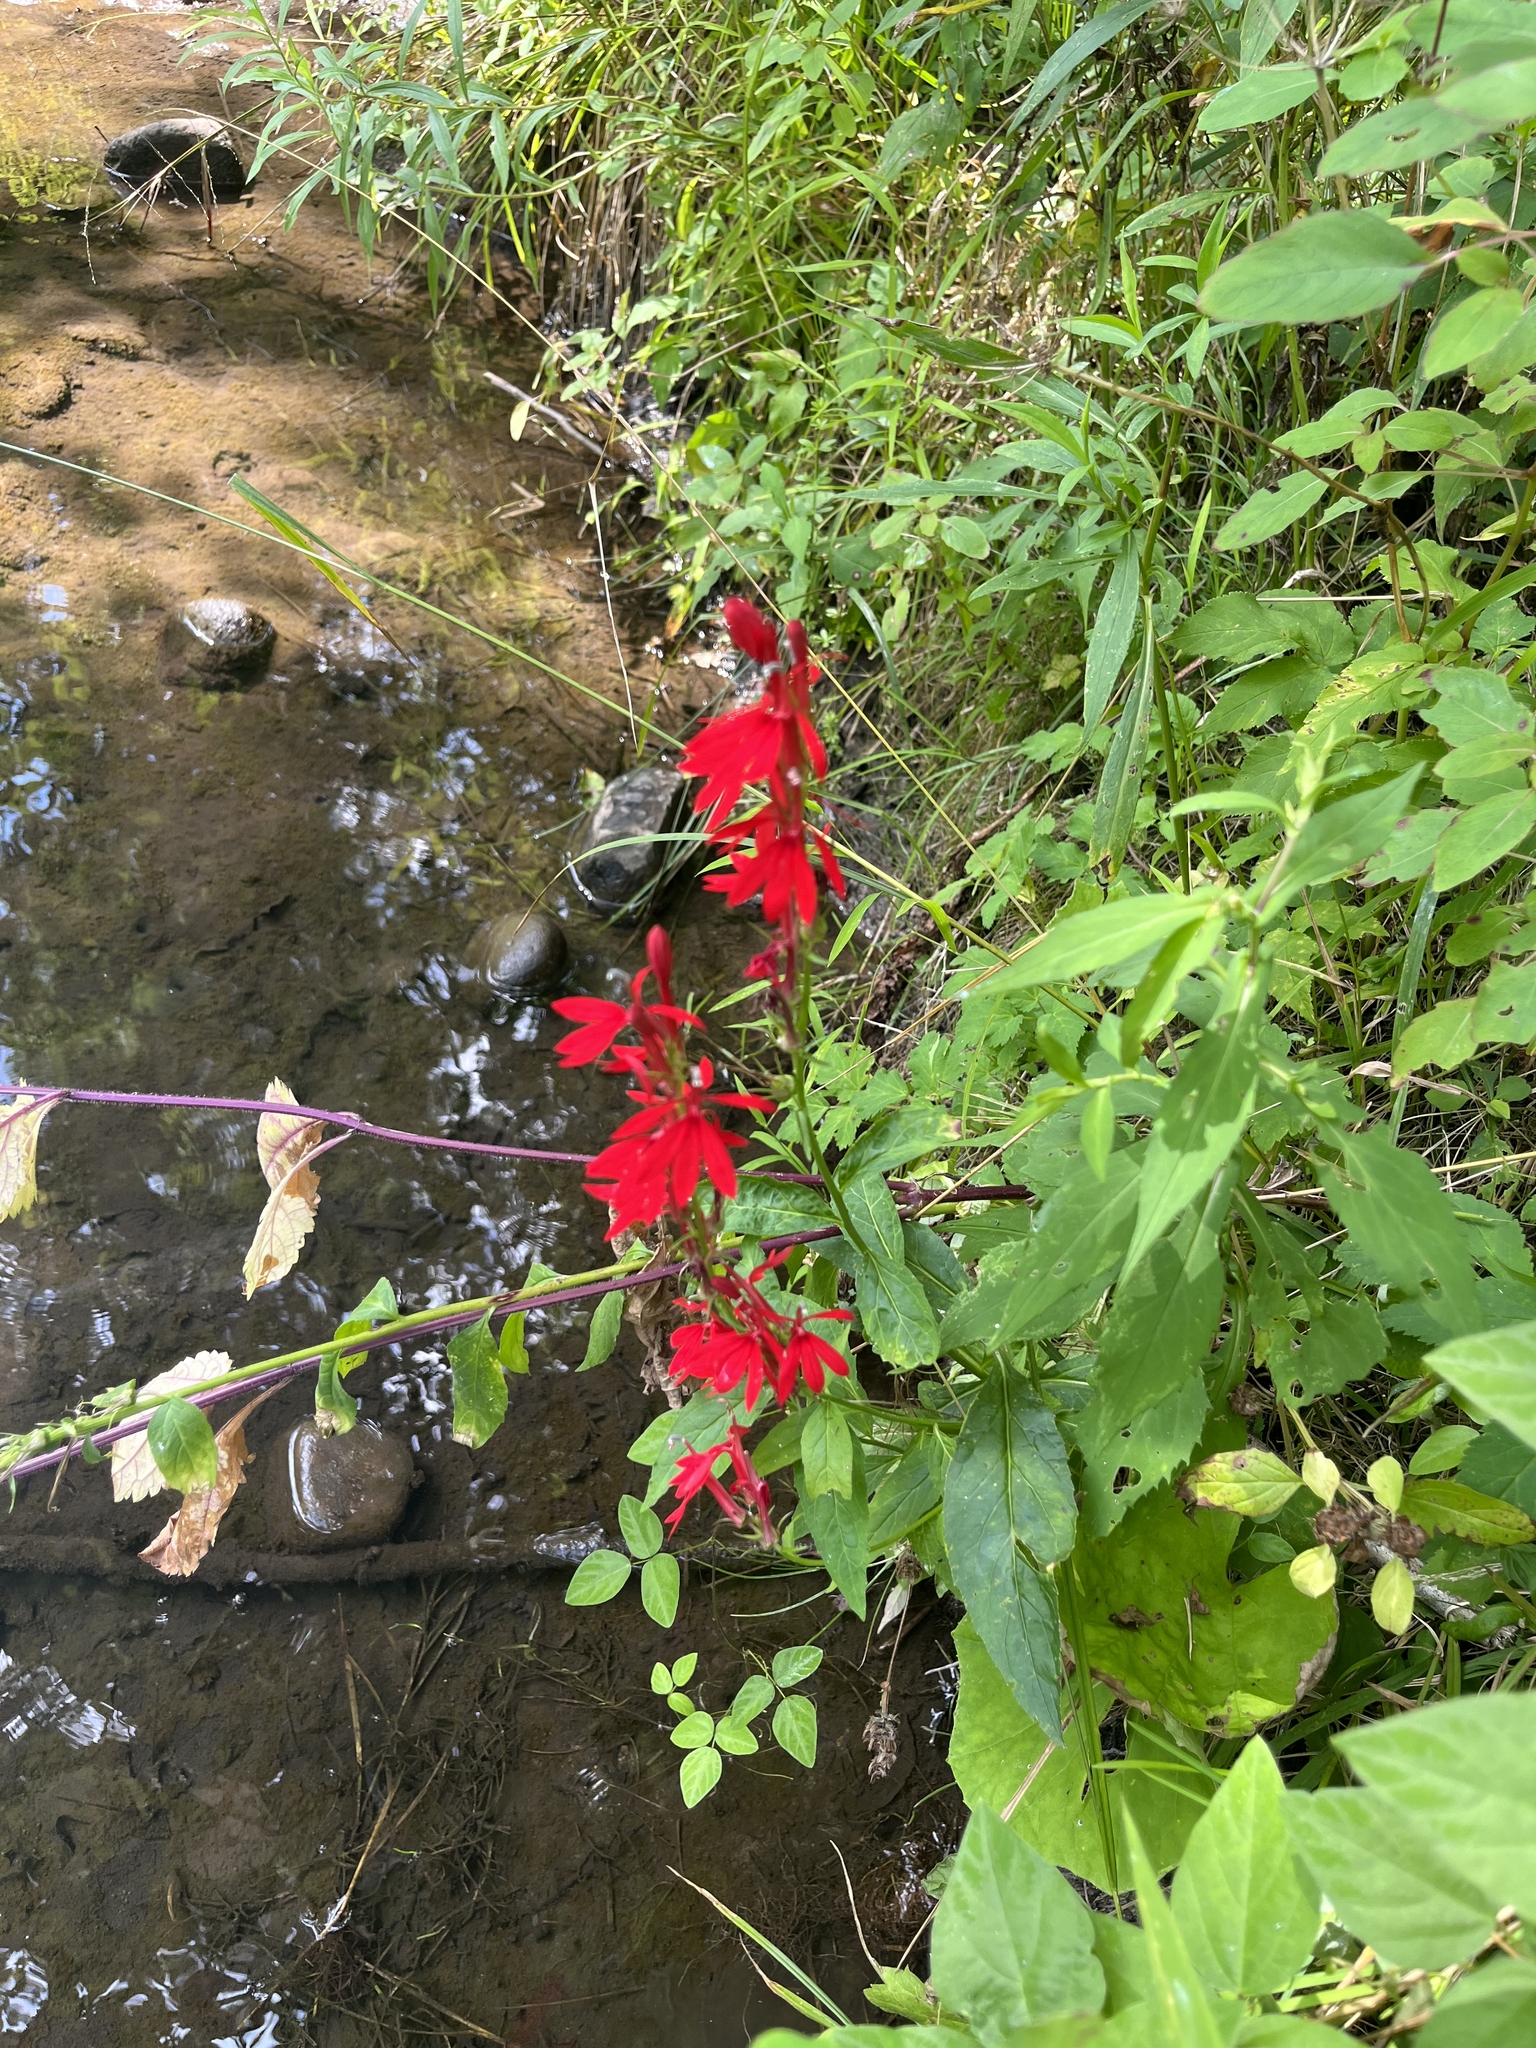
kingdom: Plantae
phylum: Tracheophyta
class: Magnoliopsida
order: Asterales
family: Campanulaceae
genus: Lobelia
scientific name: Lobelia cardinalis
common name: Cardinal flower
